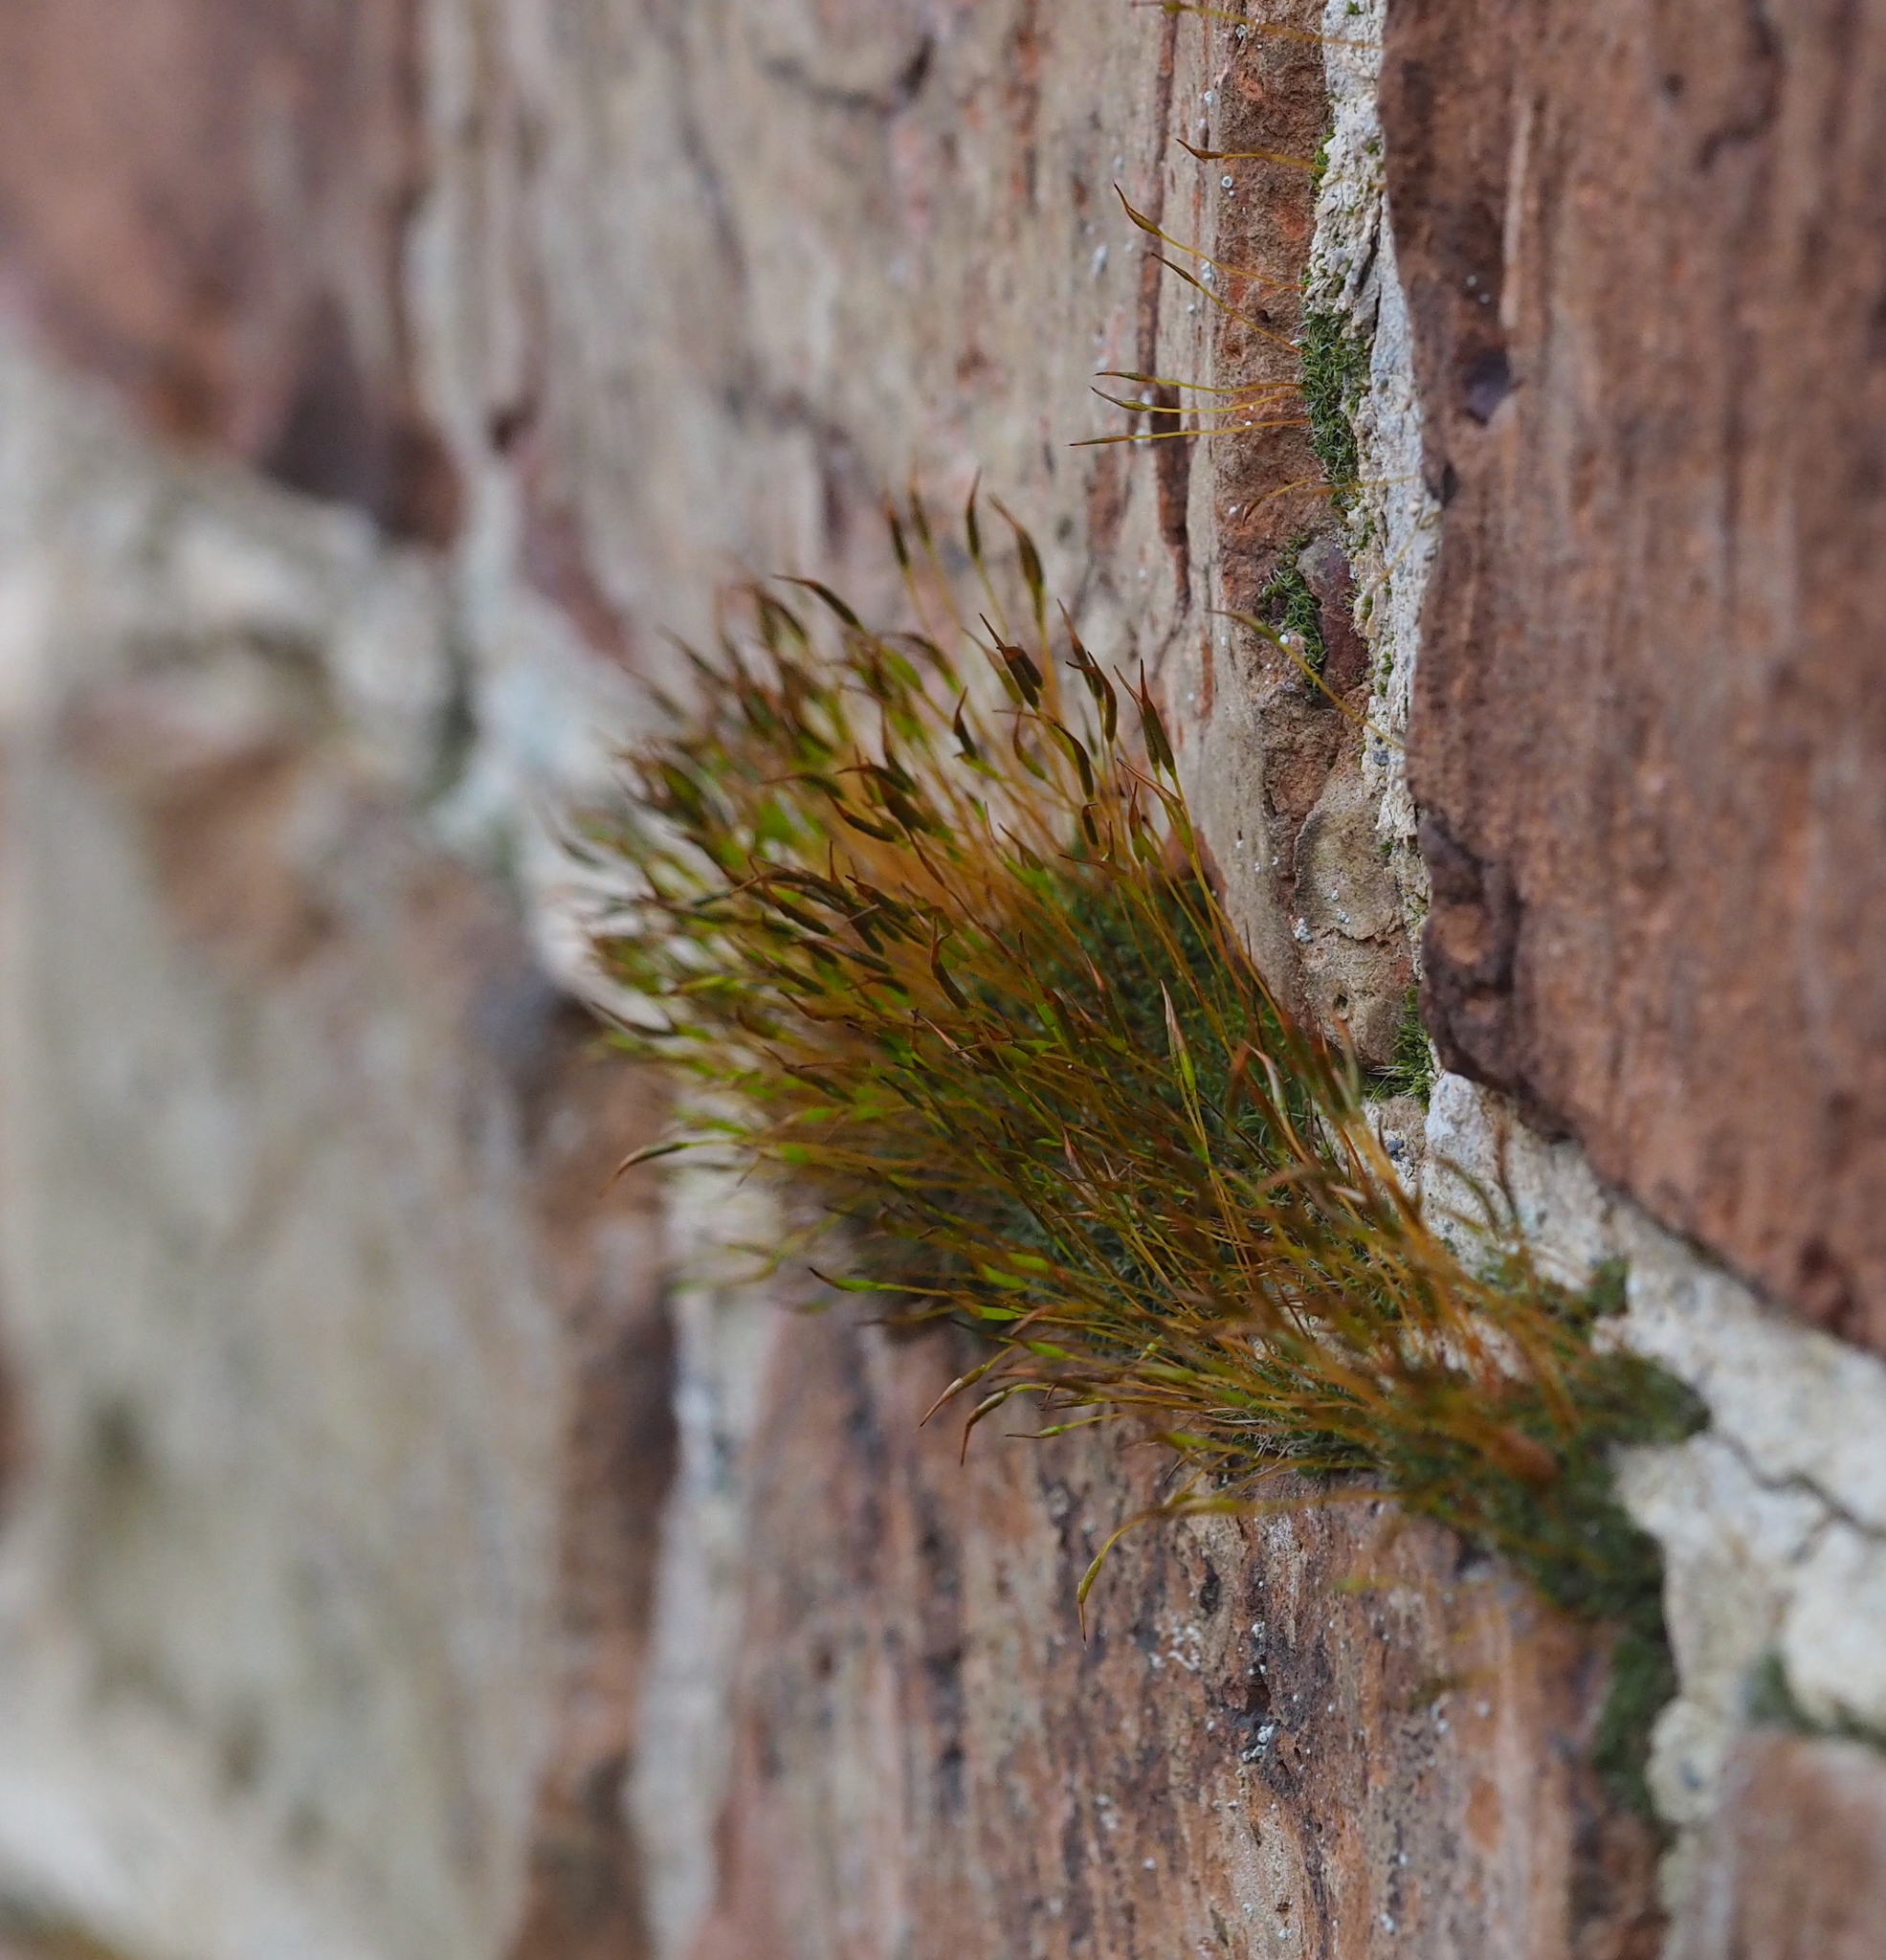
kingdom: Plantae
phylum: Bryophyta
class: Bryopsida
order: Pottiales
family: Pottiaceae
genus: Tortula
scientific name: Tortula muralis
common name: Wall screw-moss
